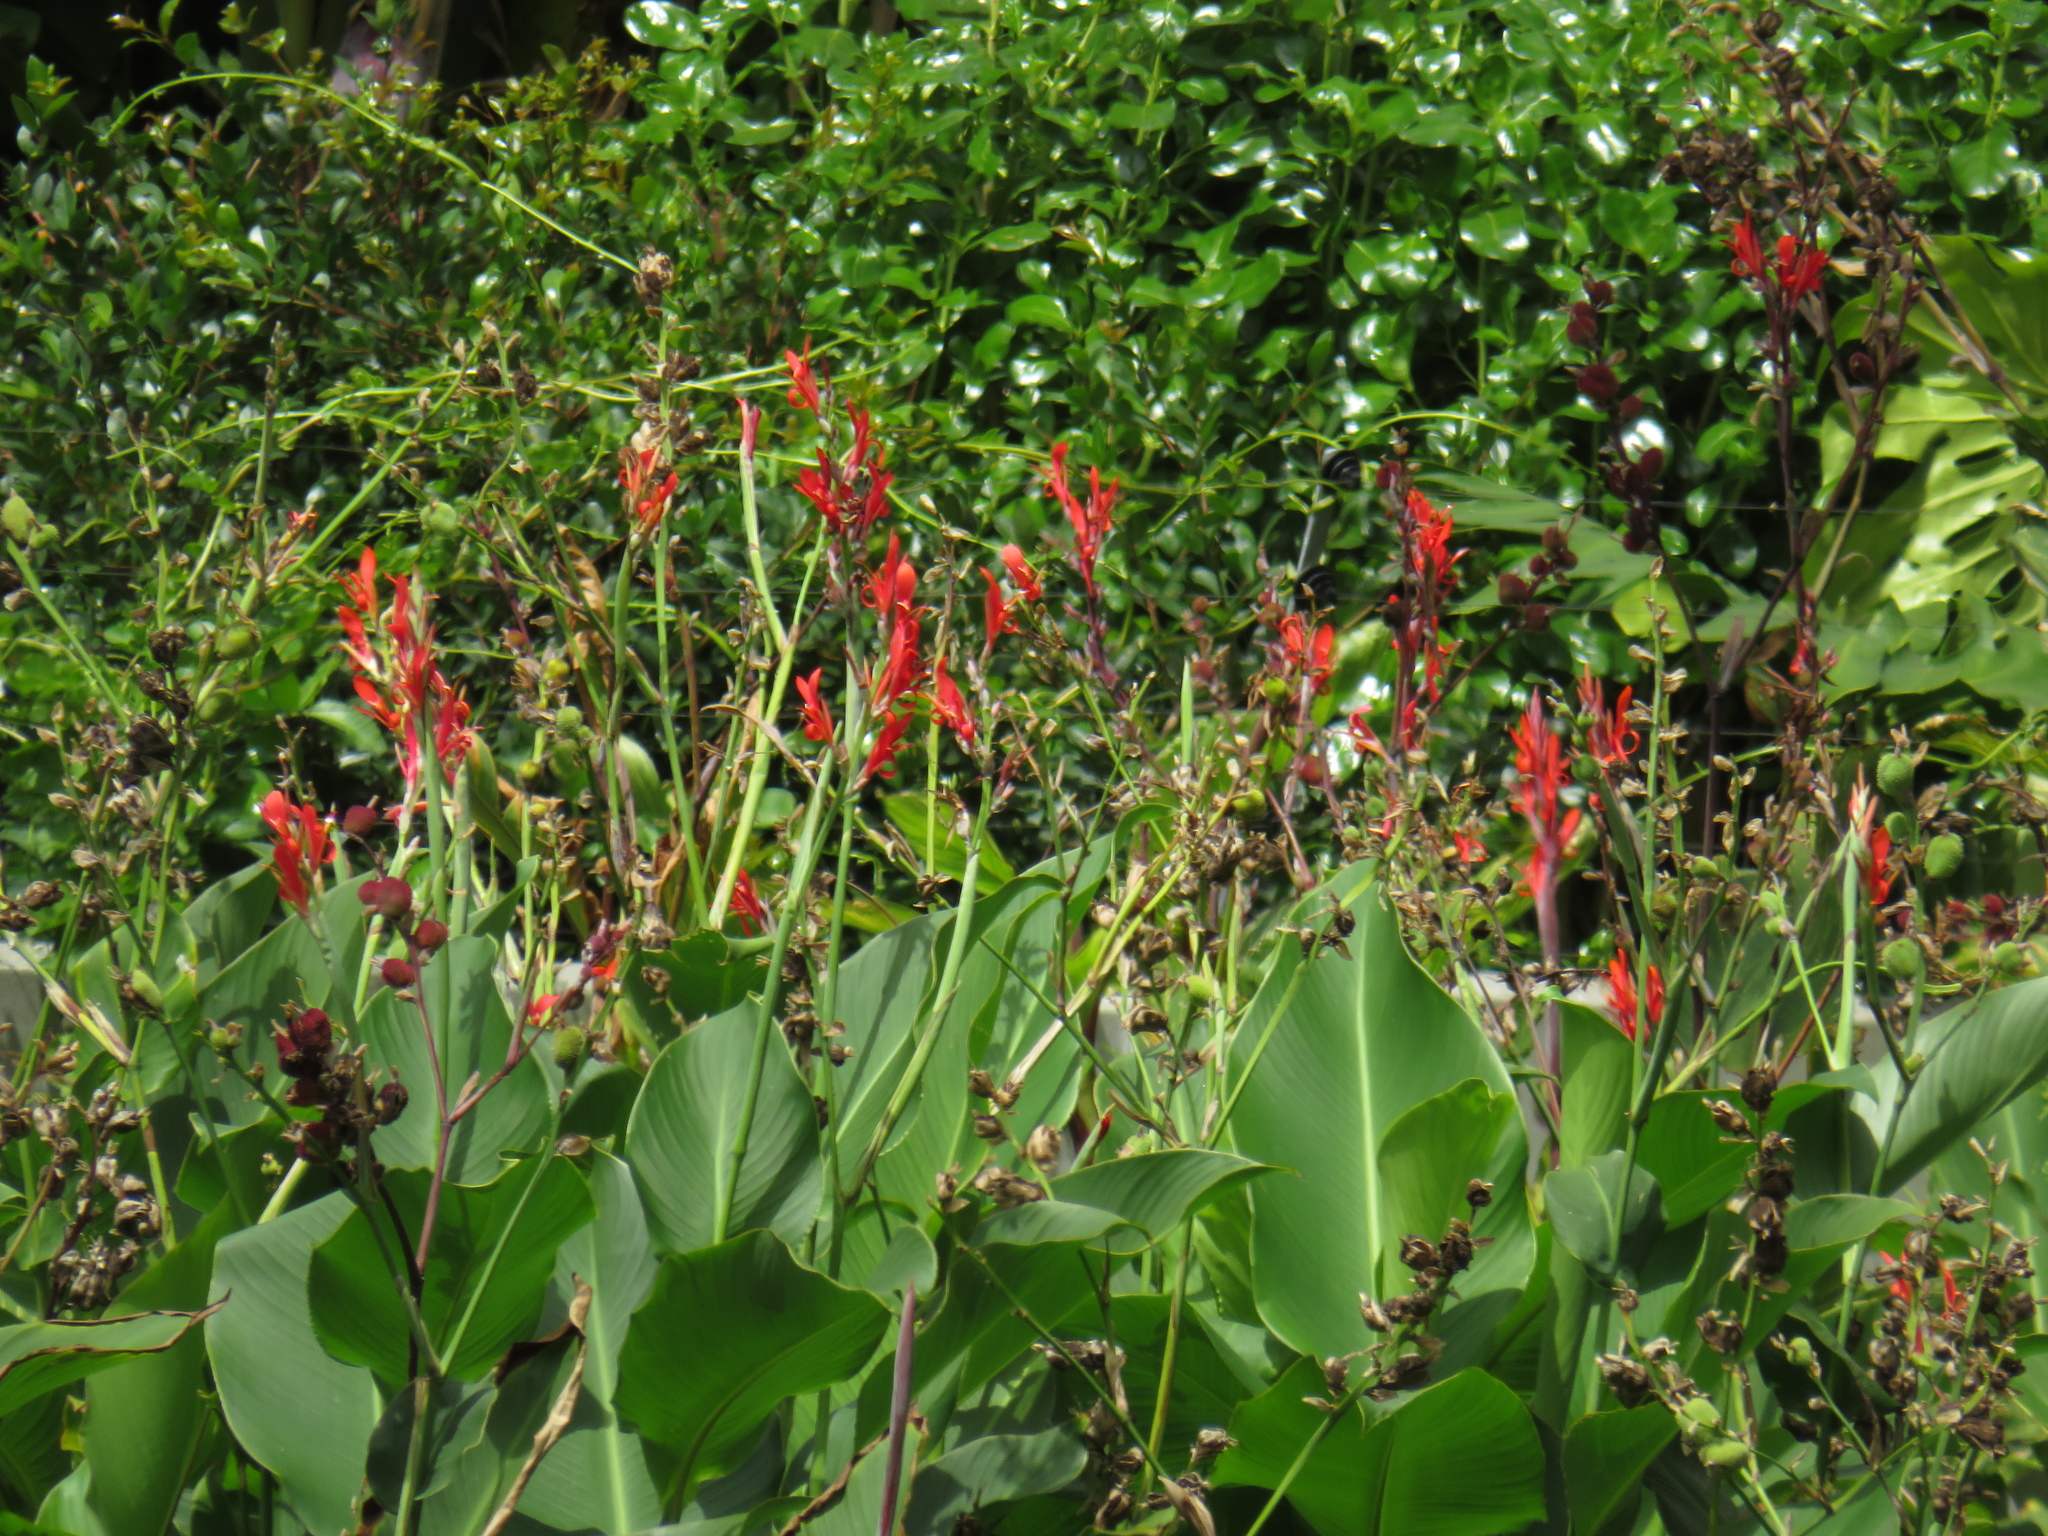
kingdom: Plantae
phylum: Tracheophyta
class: Liliopsida
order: Zingiberales
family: Cannaceae
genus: Canna
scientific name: Canna indica
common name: Indian shot
